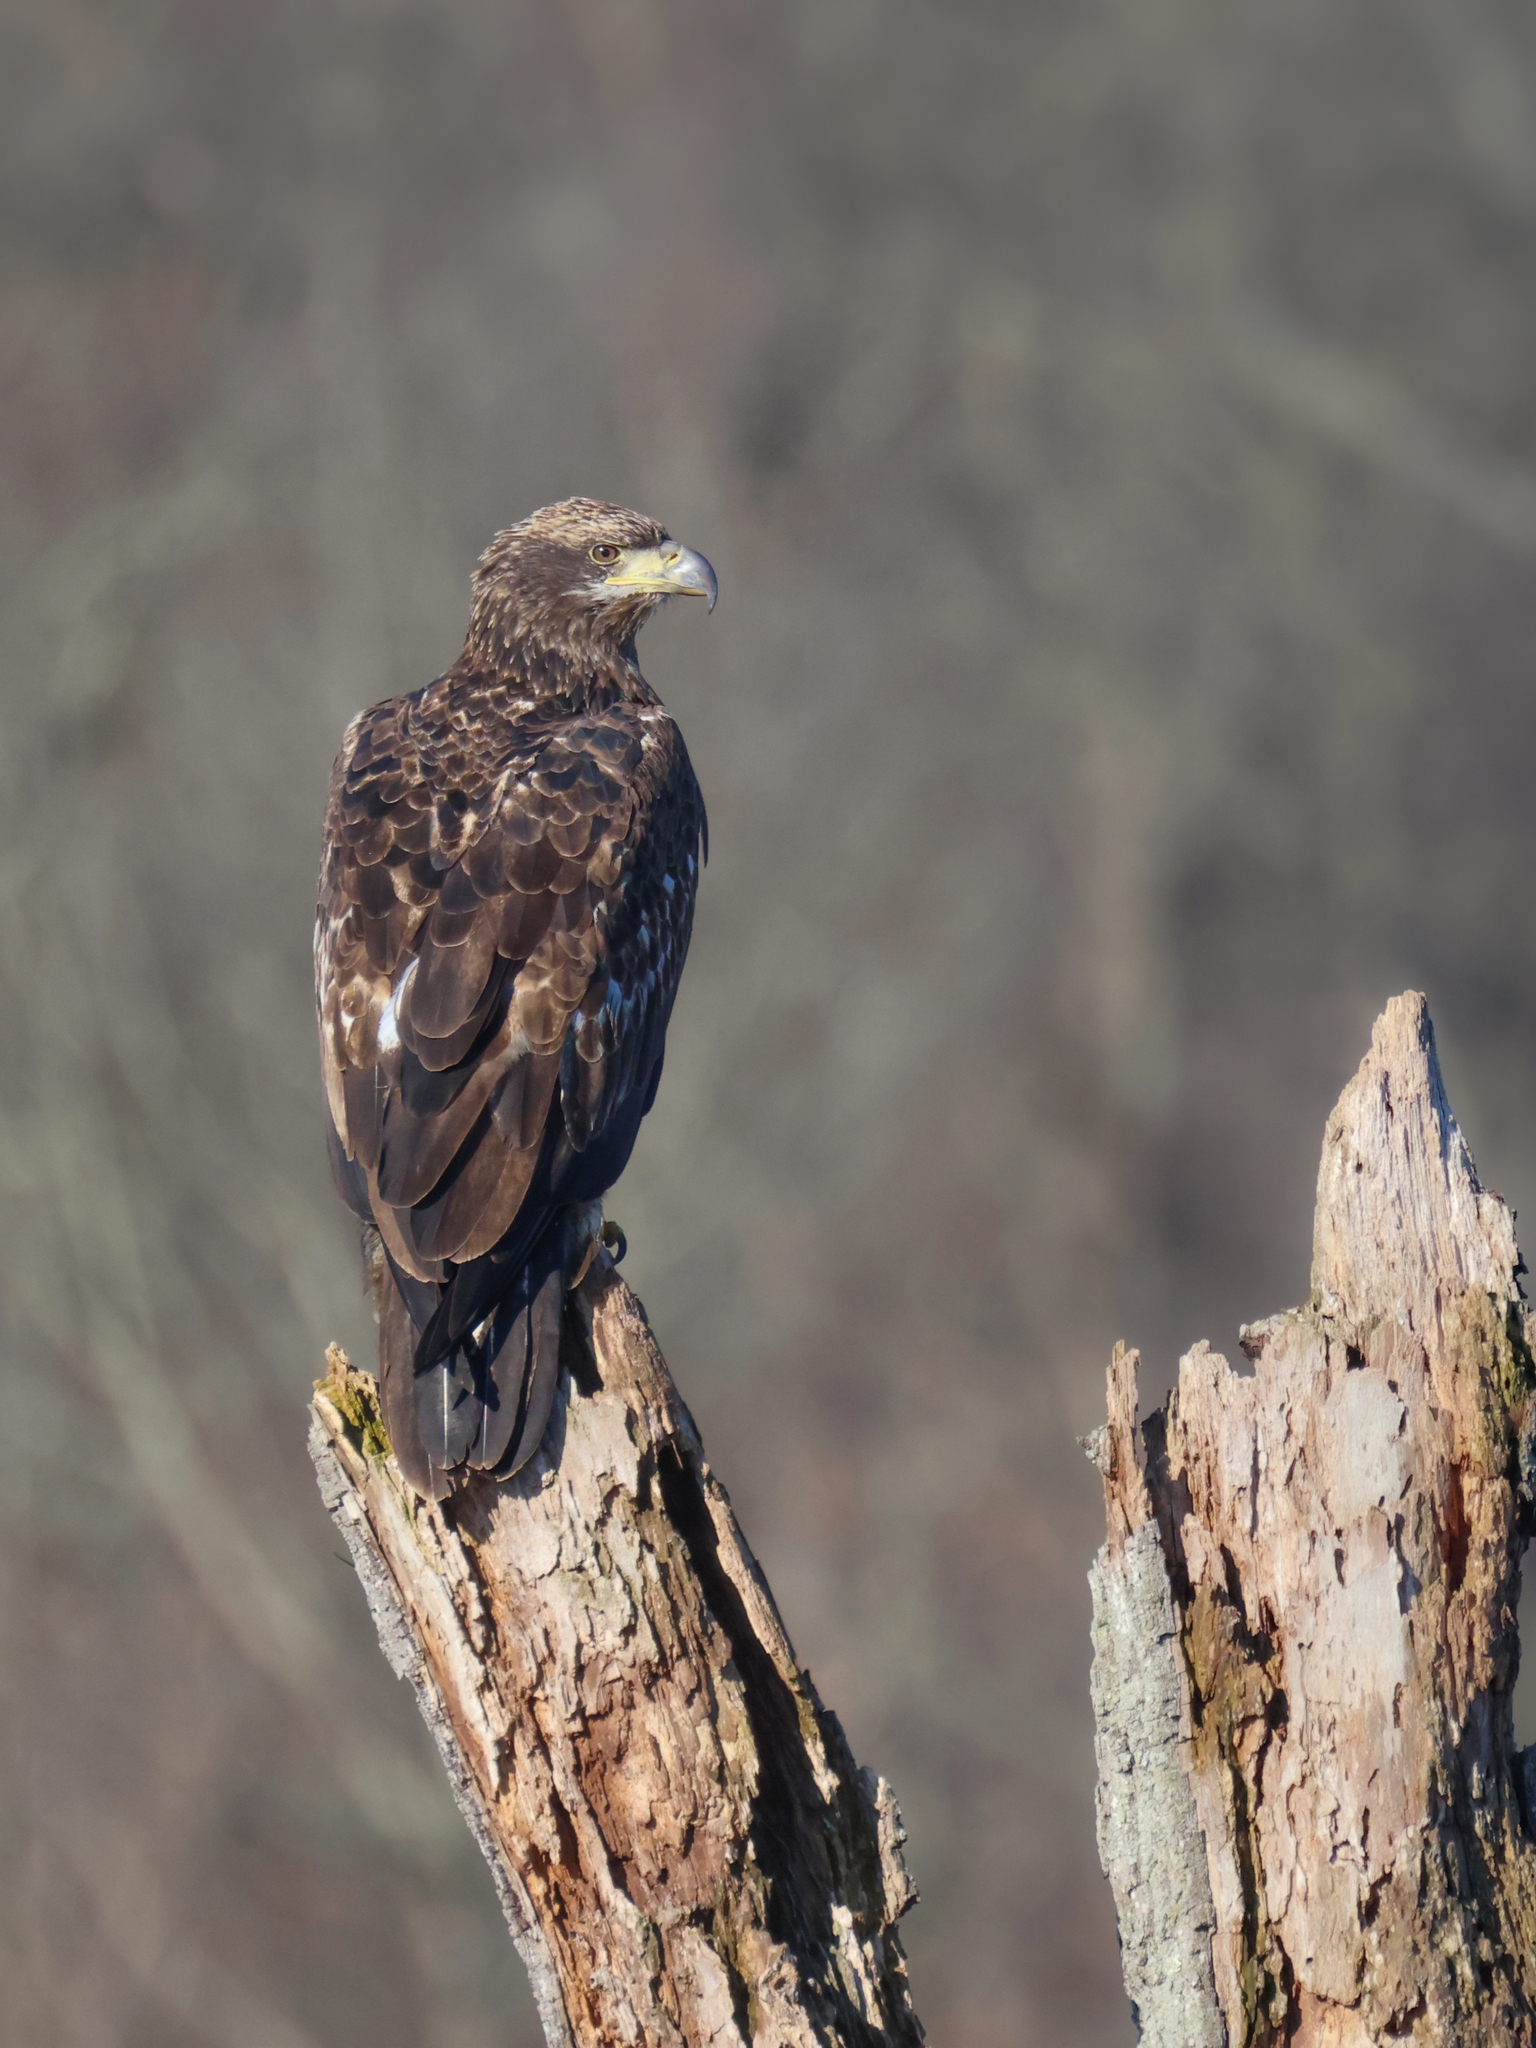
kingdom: Animalia
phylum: Chordata
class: Aves
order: Accipitriformes
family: Accipitridae
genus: Haliaeetus
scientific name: Haliaeetus leucocephalus
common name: Bald eagle
